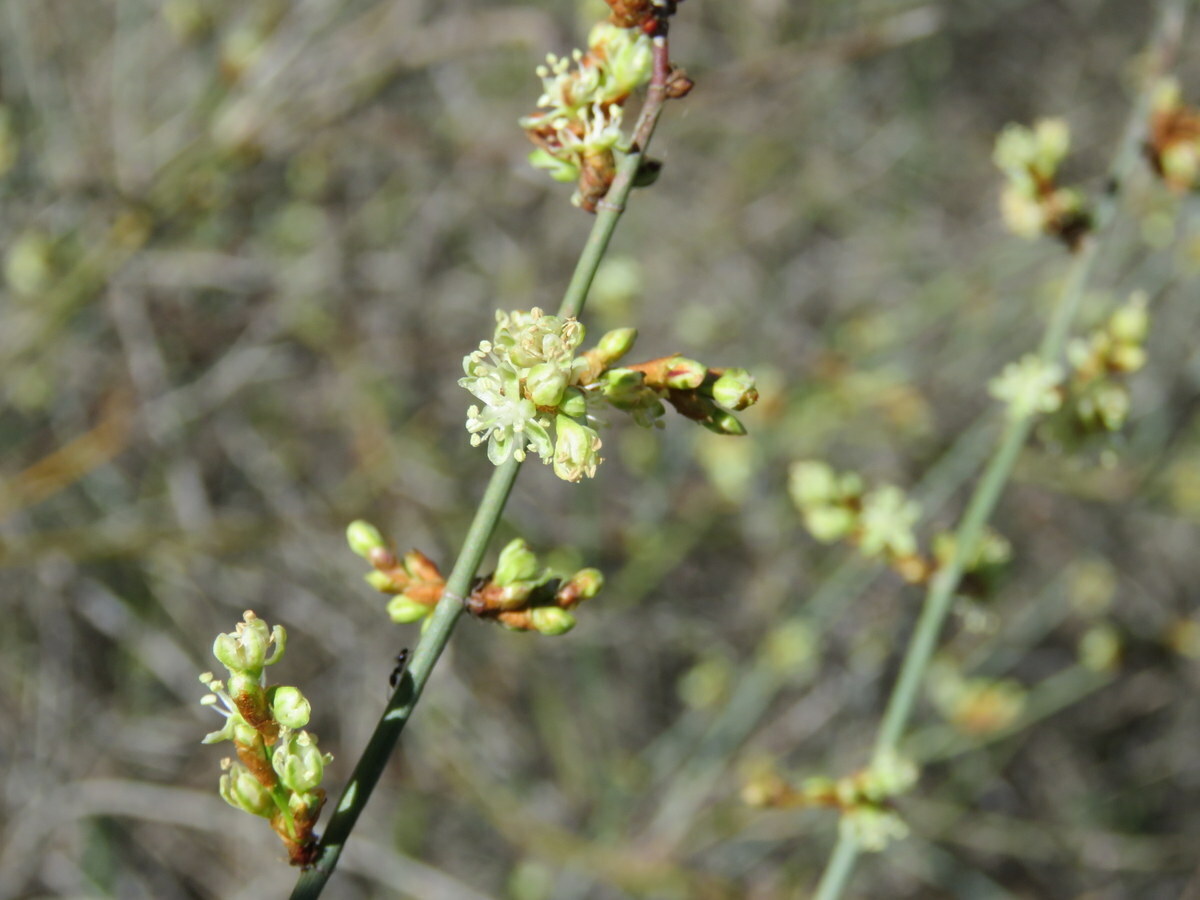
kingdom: Plantae
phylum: Tracheophyta
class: Magnoliopsida
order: Caryophyllales
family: Polygonaceae
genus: Duma
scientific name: Duma florulenta
